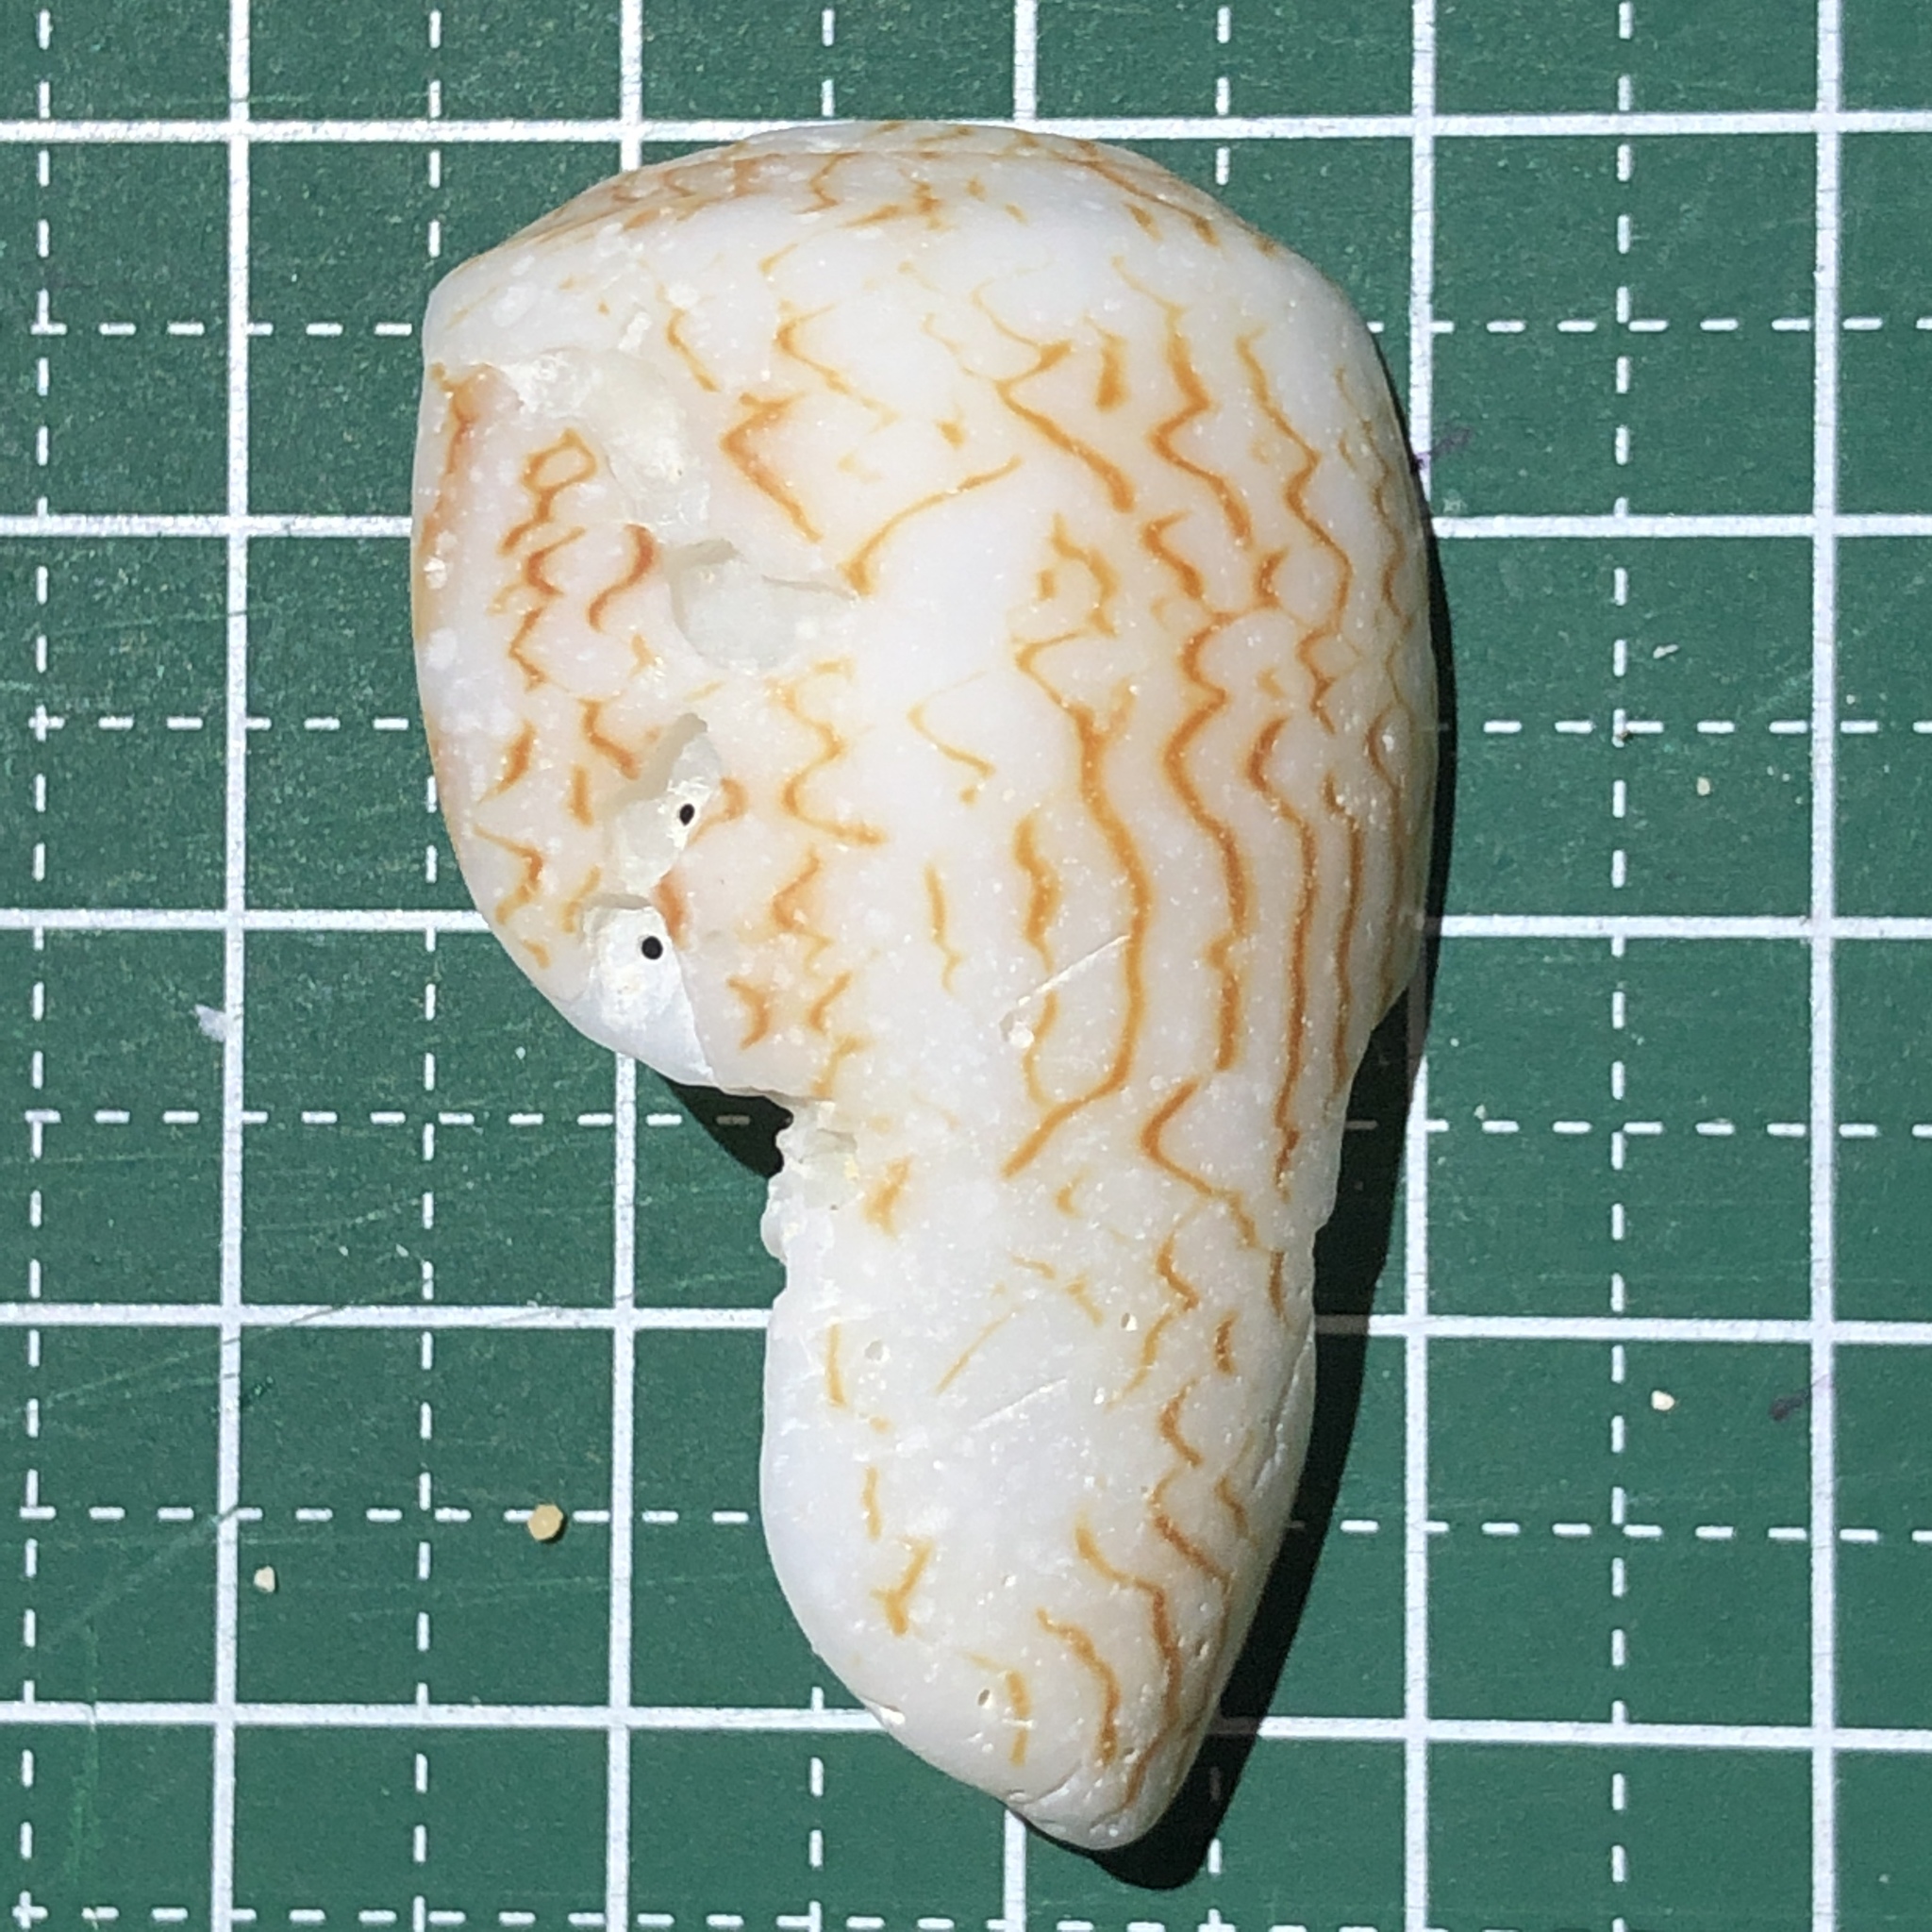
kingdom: Animalia
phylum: Mollusca
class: Gastropoda
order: Neogastropoda
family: Conidae
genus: Conus
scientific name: Conus textile
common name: Cloth-of-gold cone
